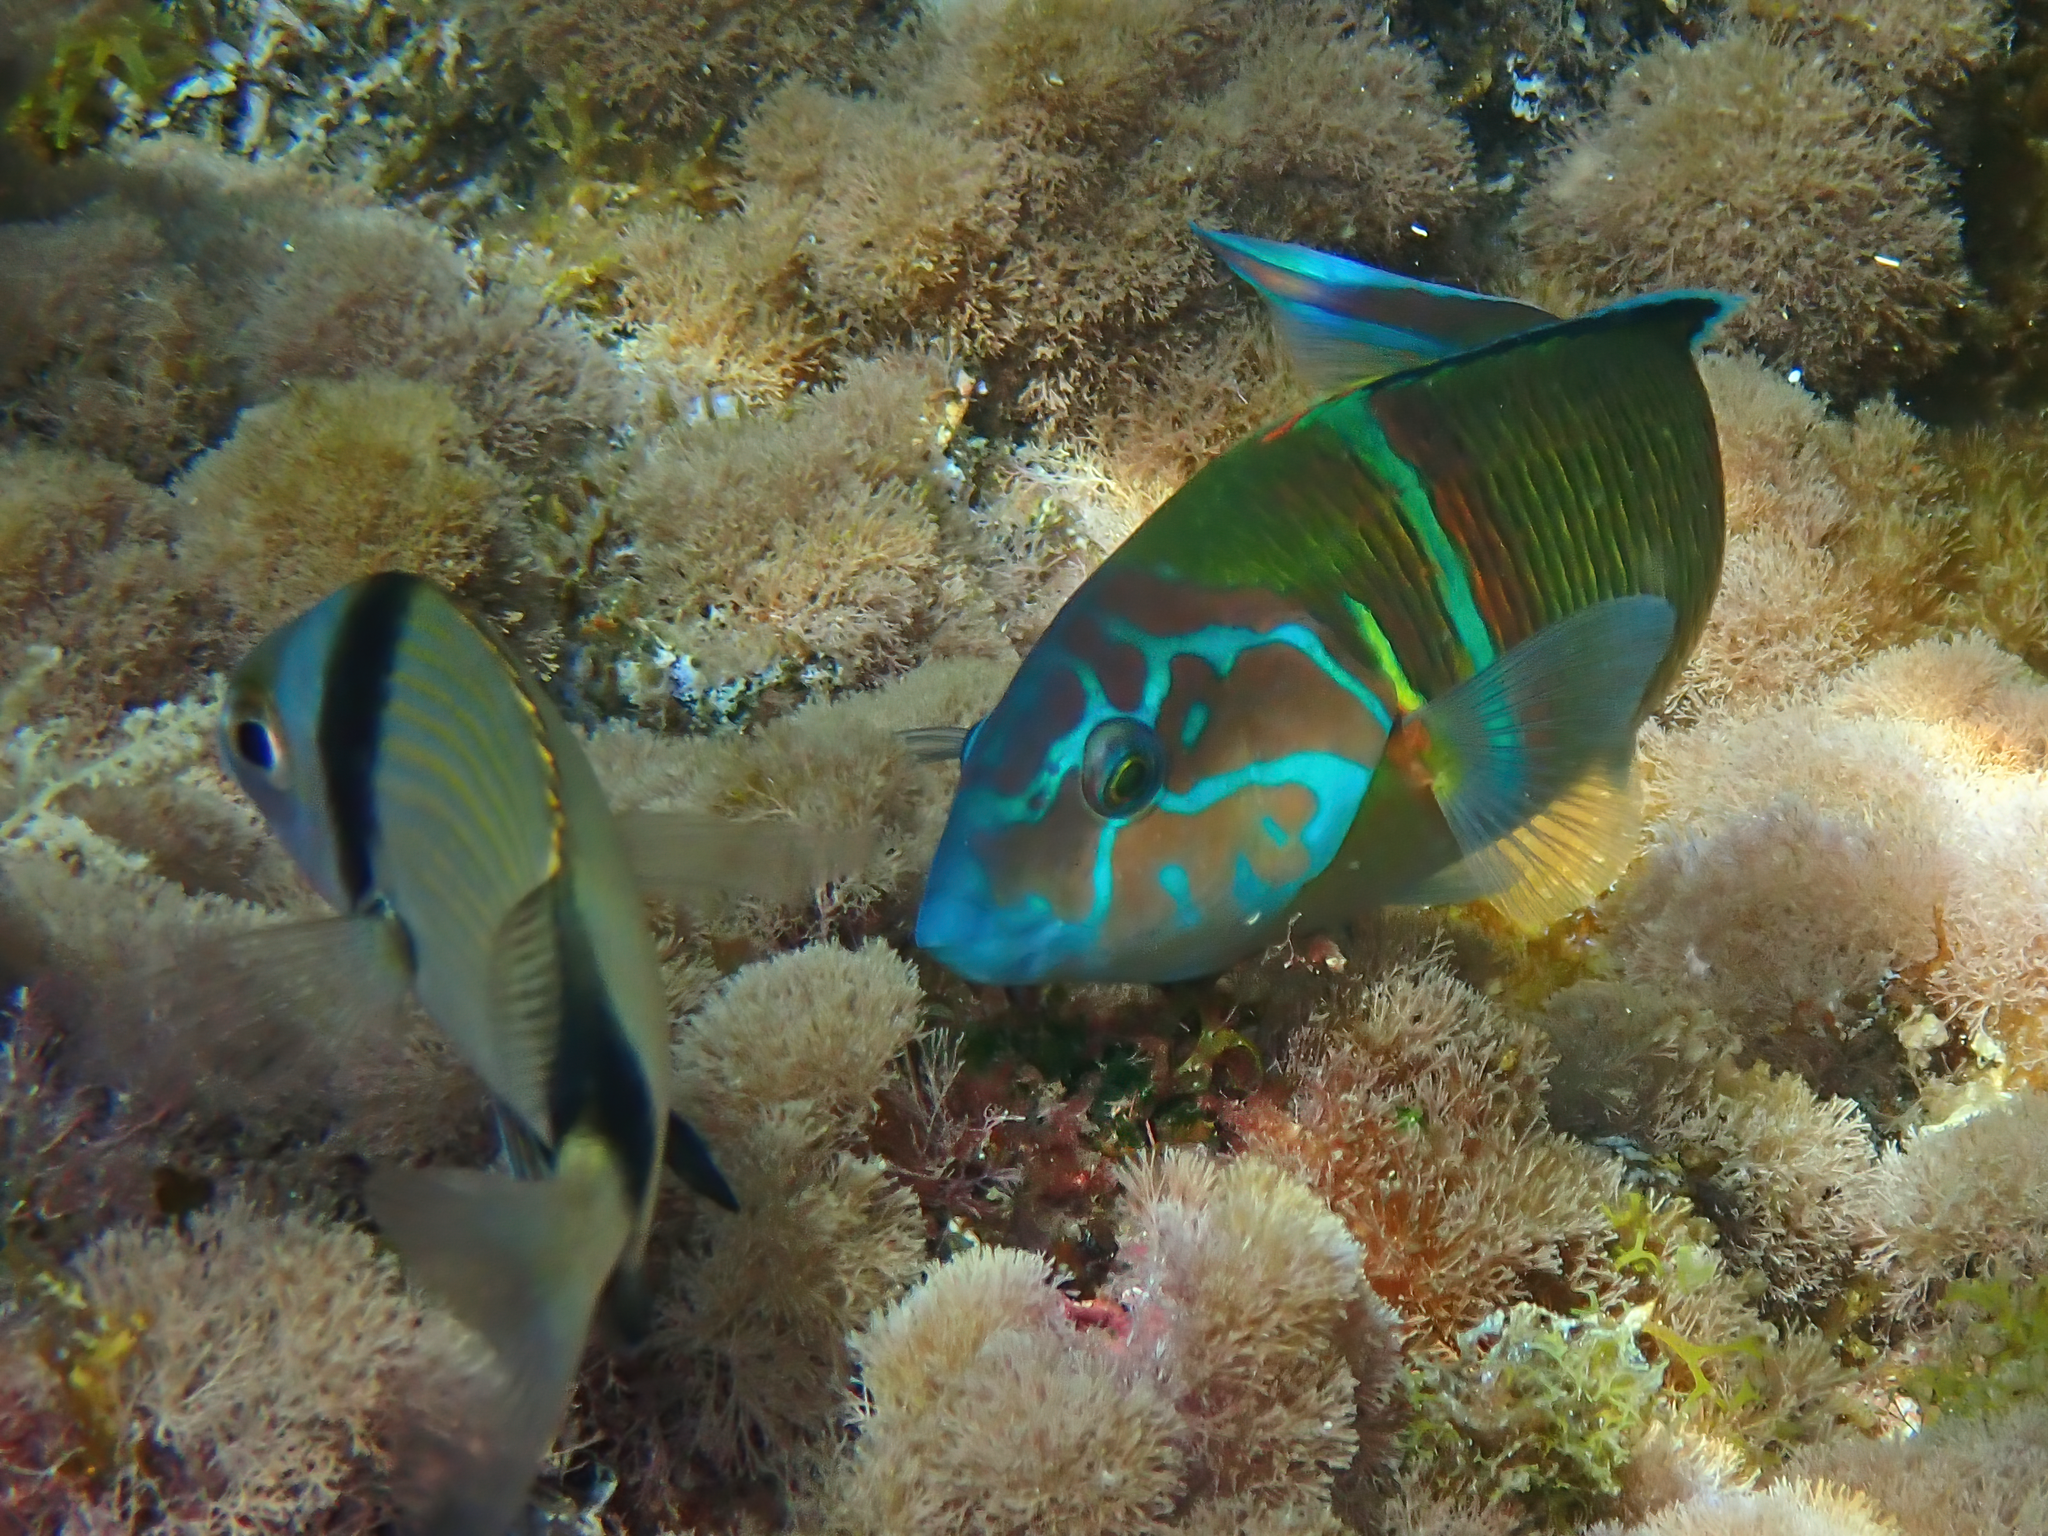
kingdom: Animalia
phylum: Chordata
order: Perciformes
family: Labridae
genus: Thalassoma
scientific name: Thalassoma pavo
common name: Ornate wrasse
